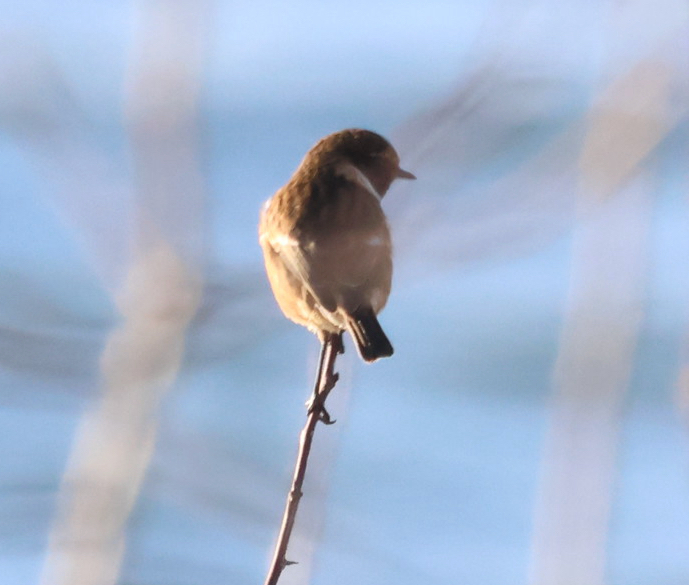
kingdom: Animalia
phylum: Chordata
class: Aves
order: Passeriformes
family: Muscicapidae
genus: Saxicola
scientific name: Saxicola rubicola
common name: European stonechat
